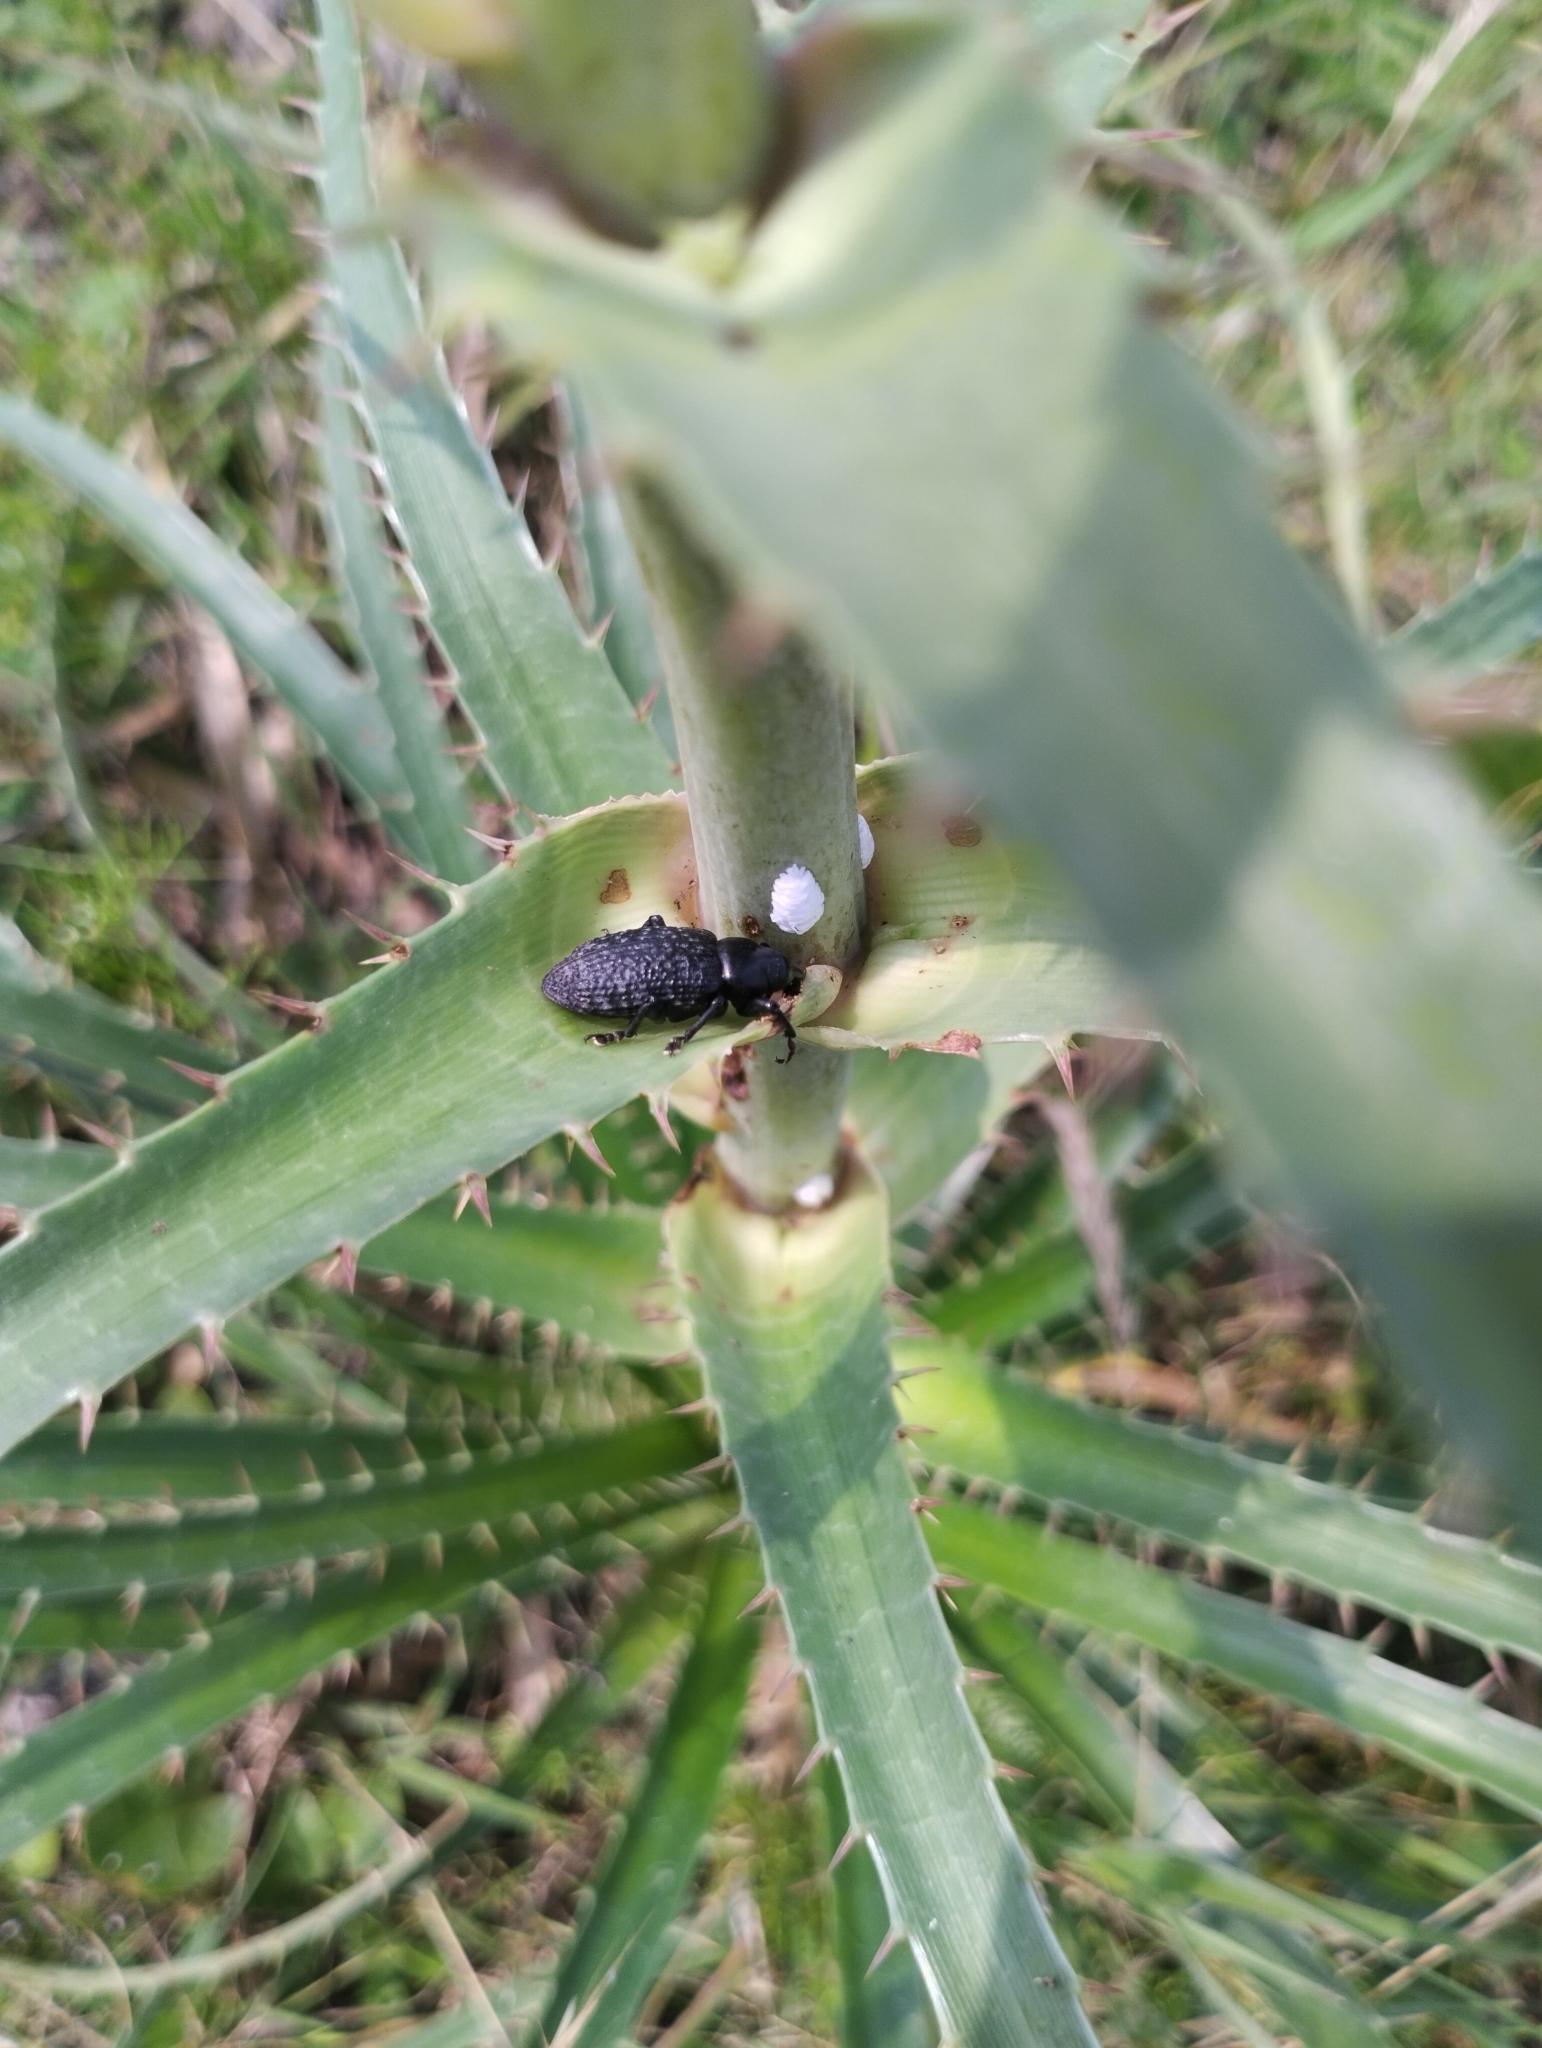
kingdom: Animalia
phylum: Arthropoda
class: Insecta
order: Coleoptera
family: Curculionidae
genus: Heilipodus
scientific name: Heilipodus scabripennis
